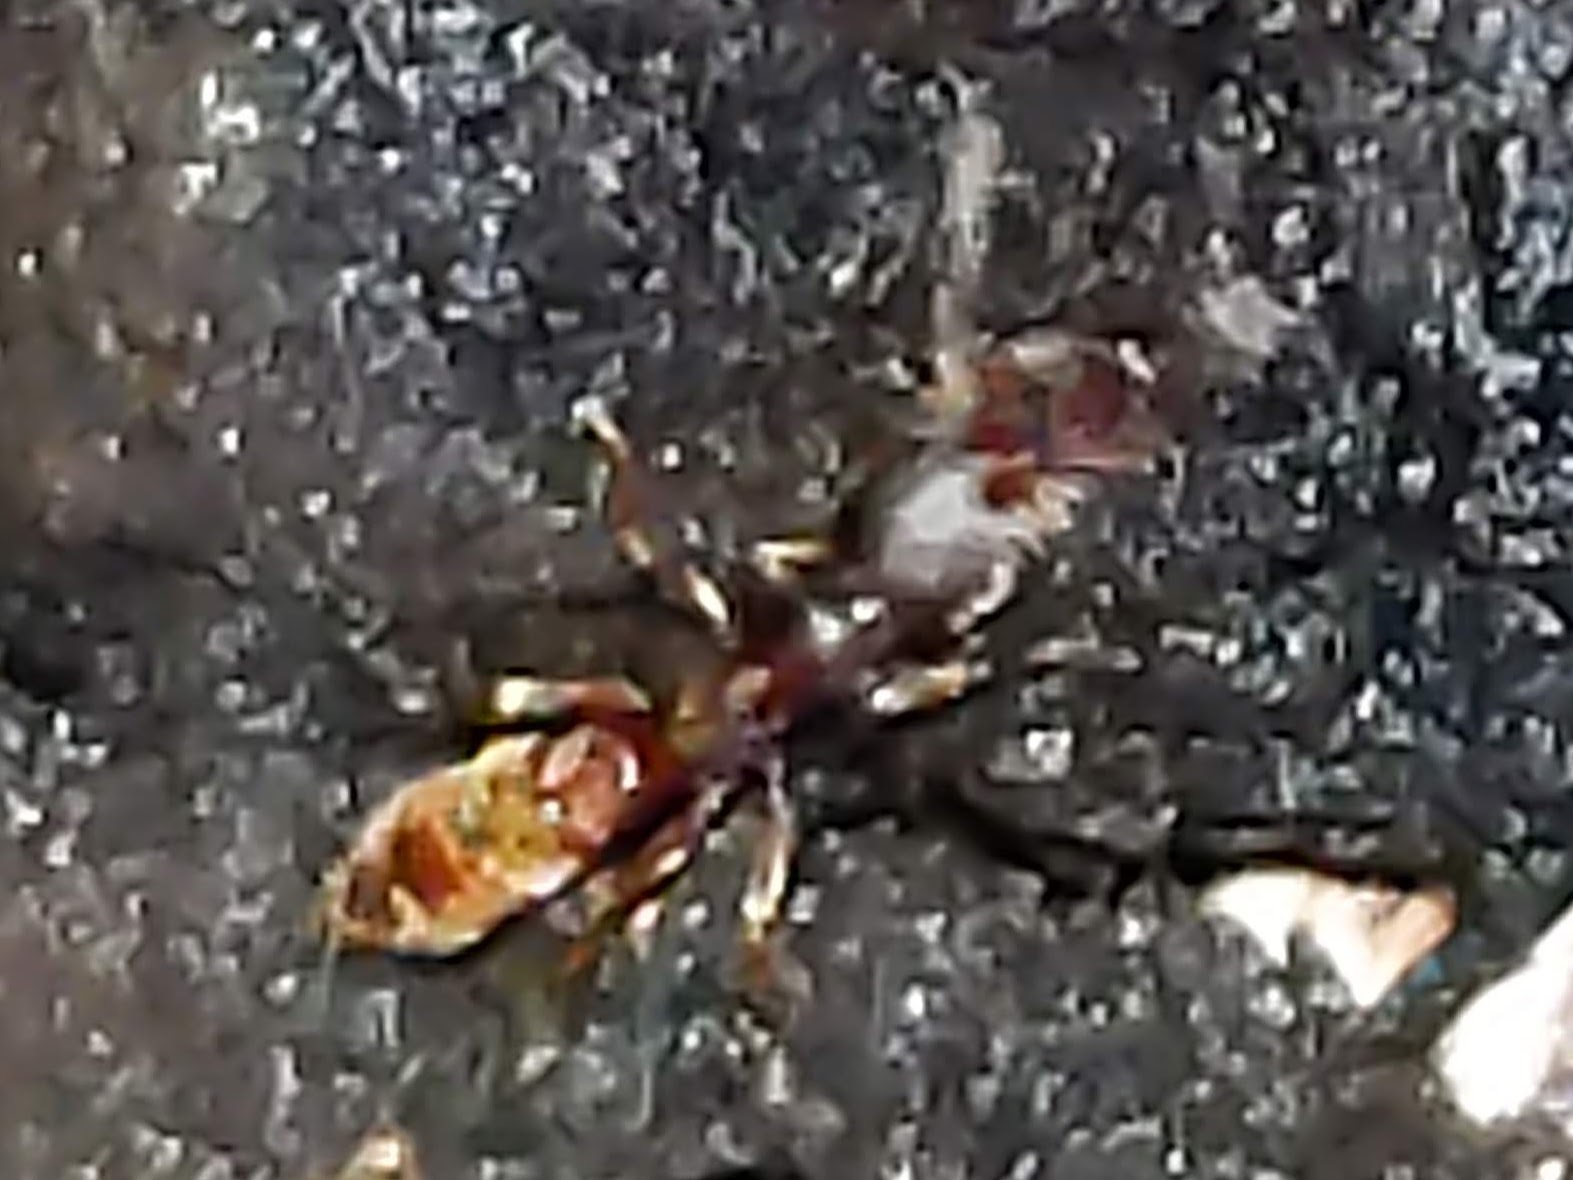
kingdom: Animalia
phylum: Arthropoda
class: Insecta
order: Hymenoptera
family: Formicidae
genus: Stigmatomma
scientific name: Stigmatomma pallipes
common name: Vampire ant
